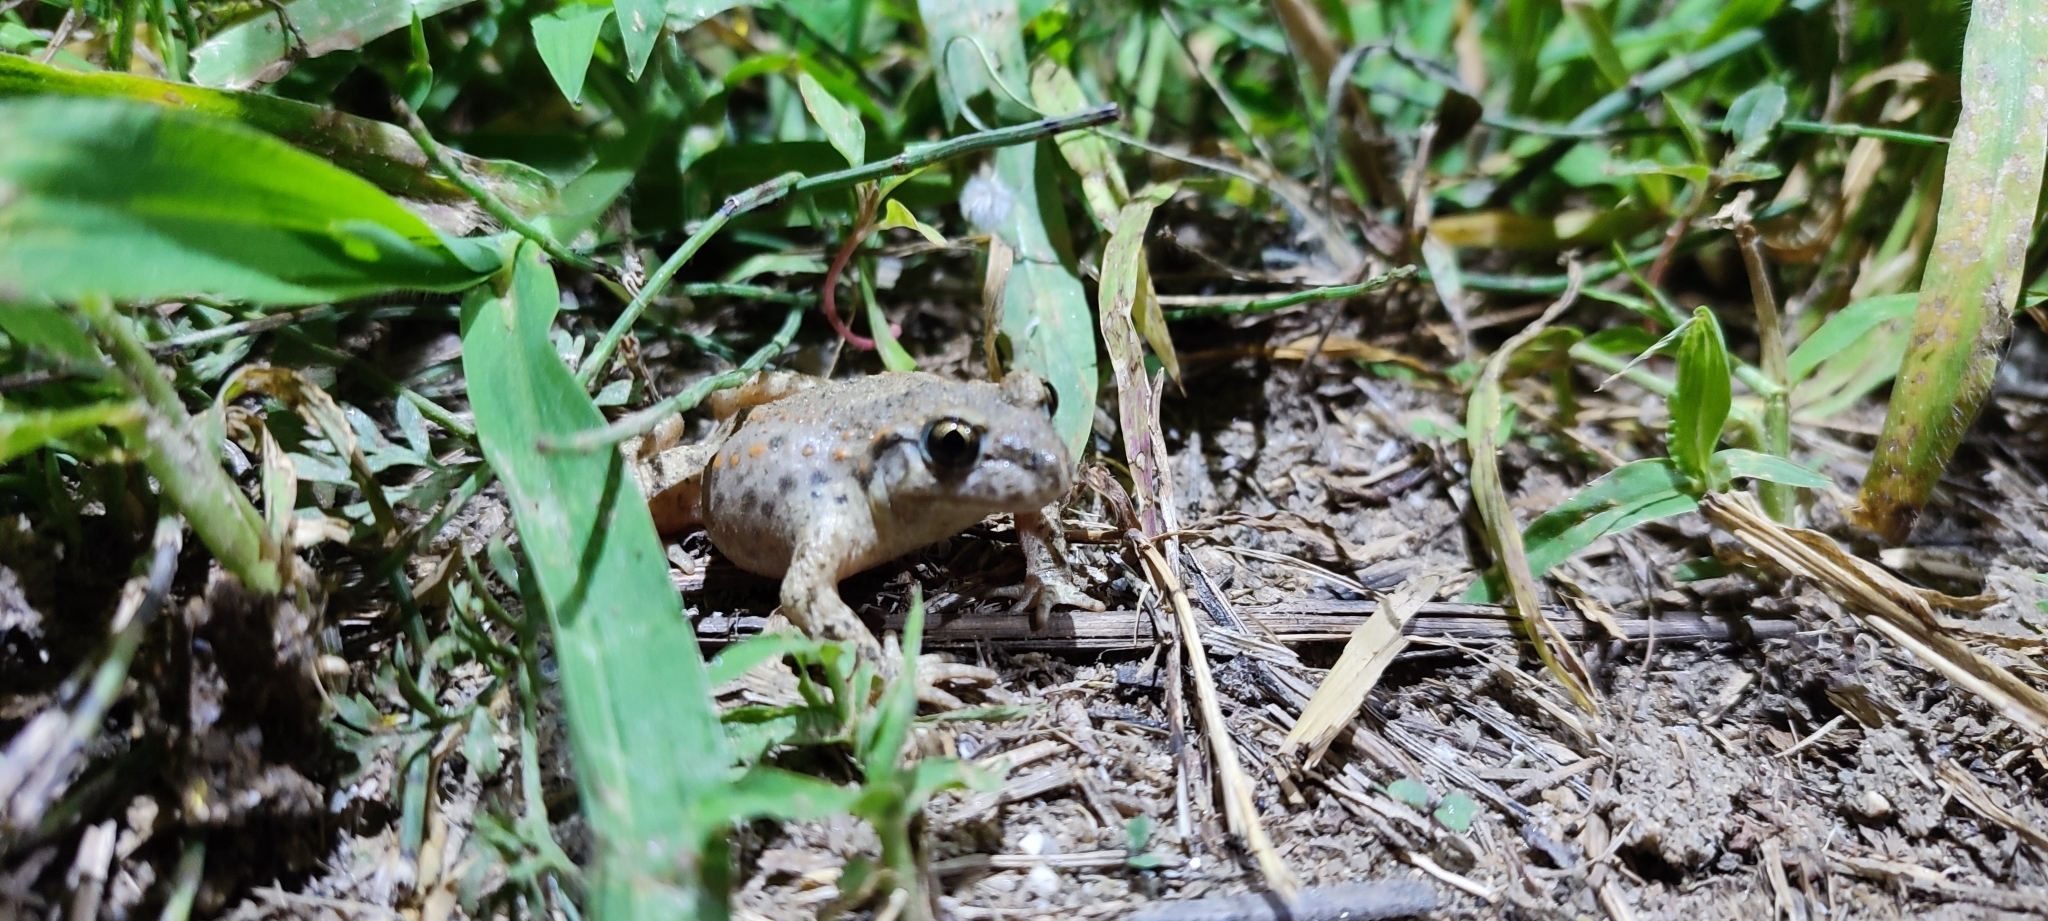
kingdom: Animalia
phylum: Chordata
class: Amphibia
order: Anura
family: Alytidae
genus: Alytes
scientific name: Alytes obstetricans
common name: Midwife toad
